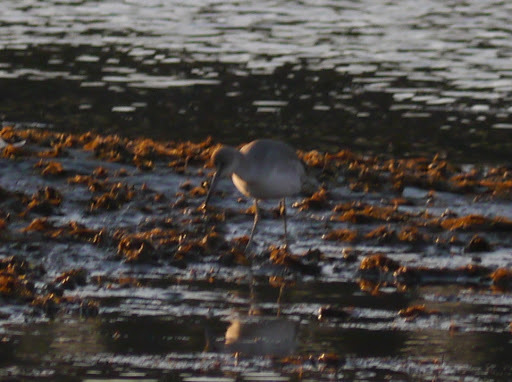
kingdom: Animalia
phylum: Chordata
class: Aves
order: Charadriiformes
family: Scolopacidae
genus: Tringa
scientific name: Tringa semipalmata
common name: Willet
